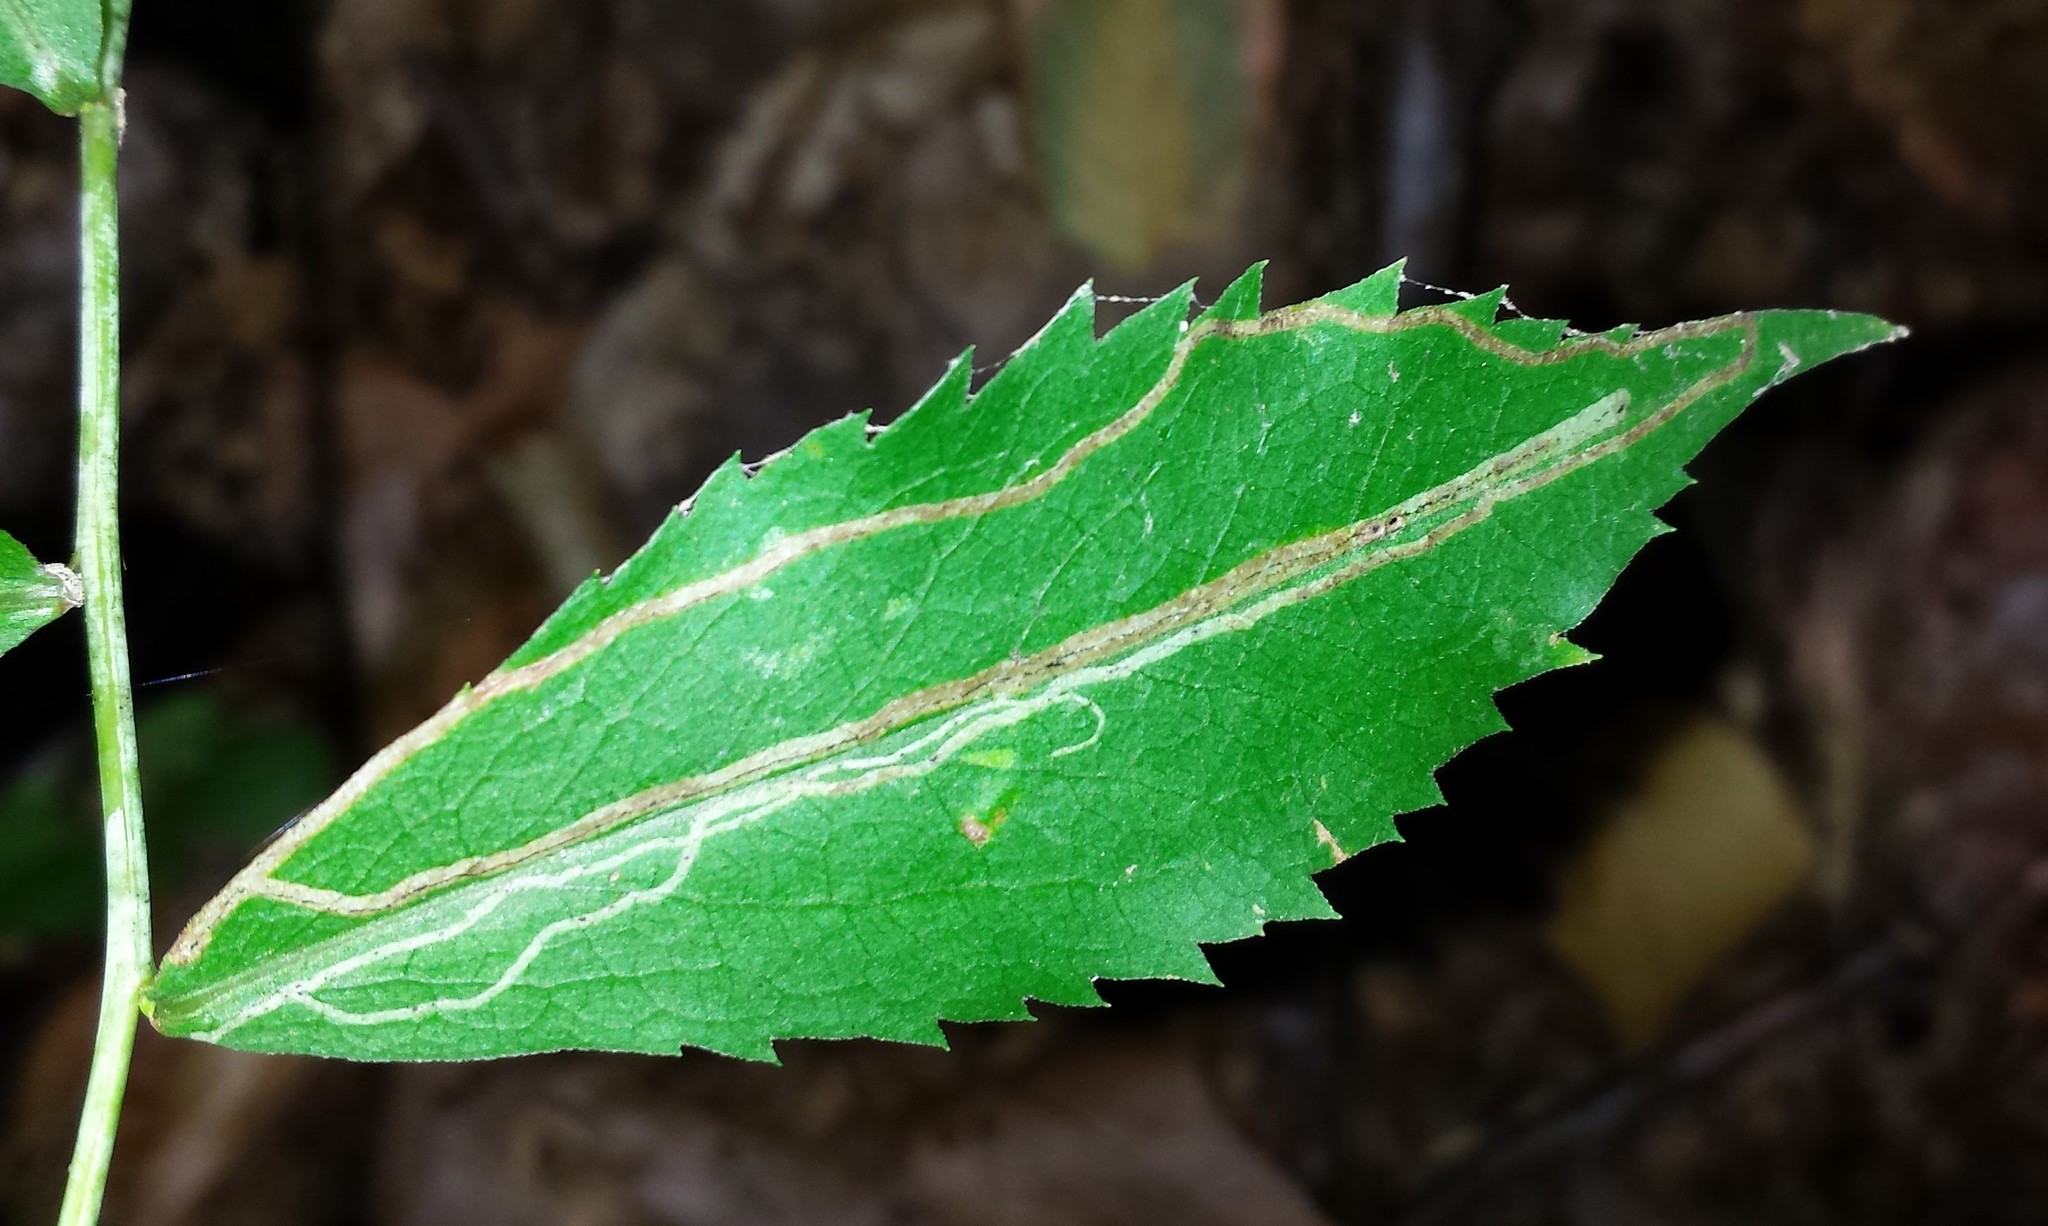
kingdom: Animalia
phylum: Arthropoda
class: Insecta
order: Diptera
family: Agromyzidae
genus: Ophiomyia
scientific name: Ophiomyia maura
